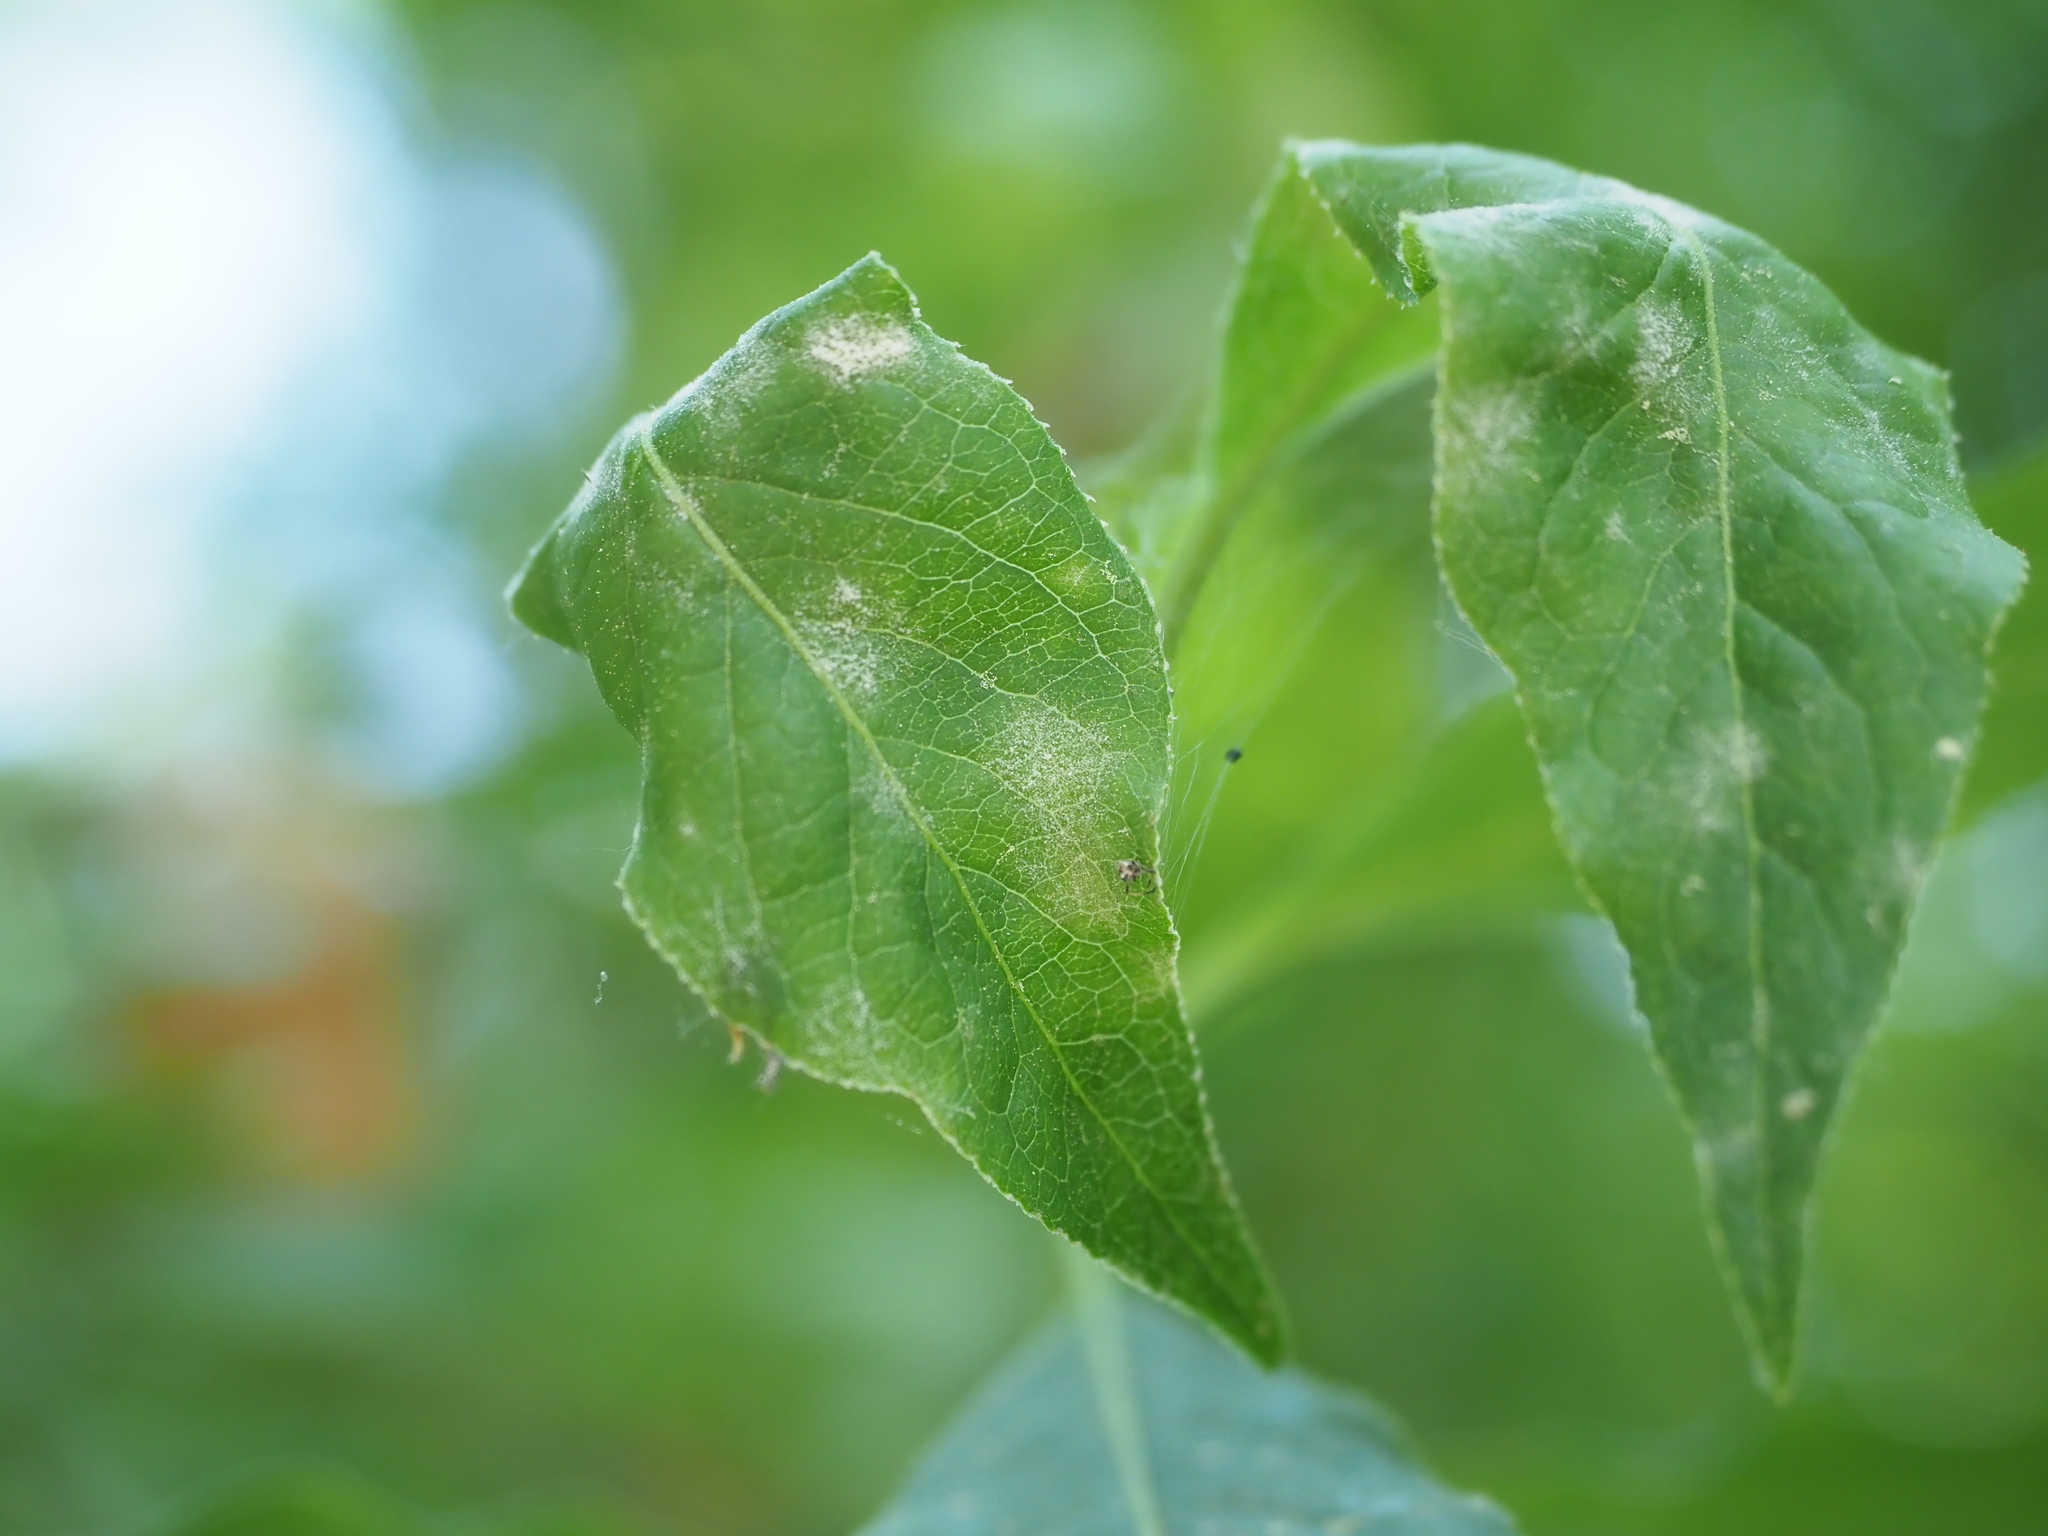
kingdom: Fungi
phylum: Ascomycota
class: Leotiomycetes
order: Helotiales
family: Erysiphaceae
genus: Erysiphe
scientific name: Erysiphe euonymi
